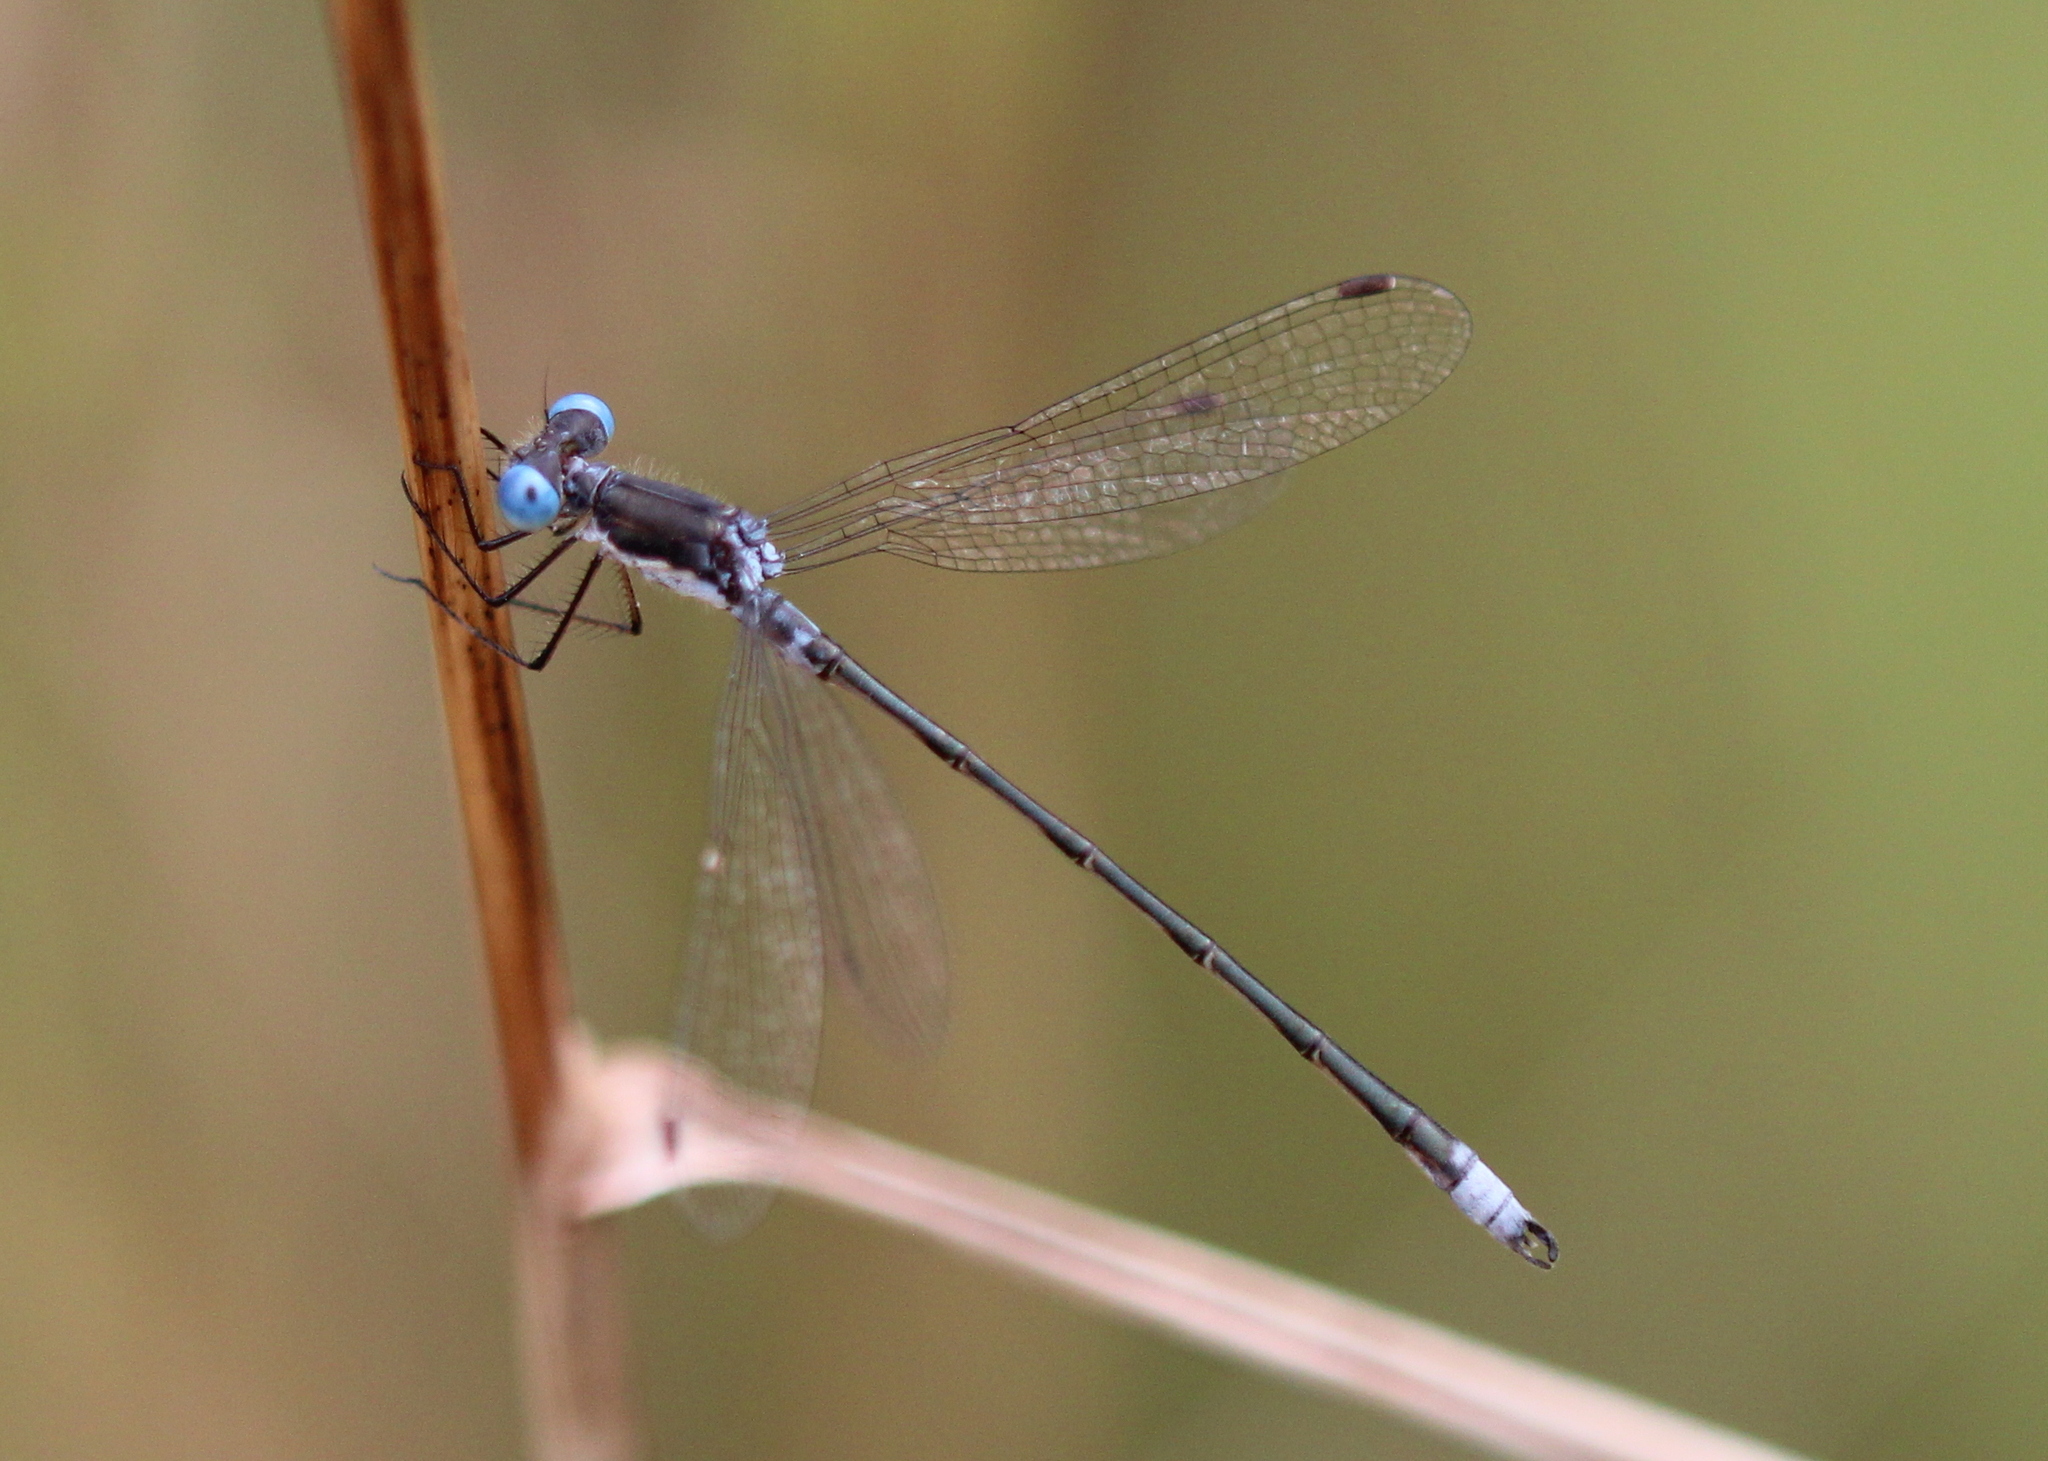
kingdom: Animalia
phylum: Arthropoda
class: Insecta
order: Odonata
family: Lestidae
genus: Lestes
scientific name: Lestes congener
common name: Spotted spreadwing
